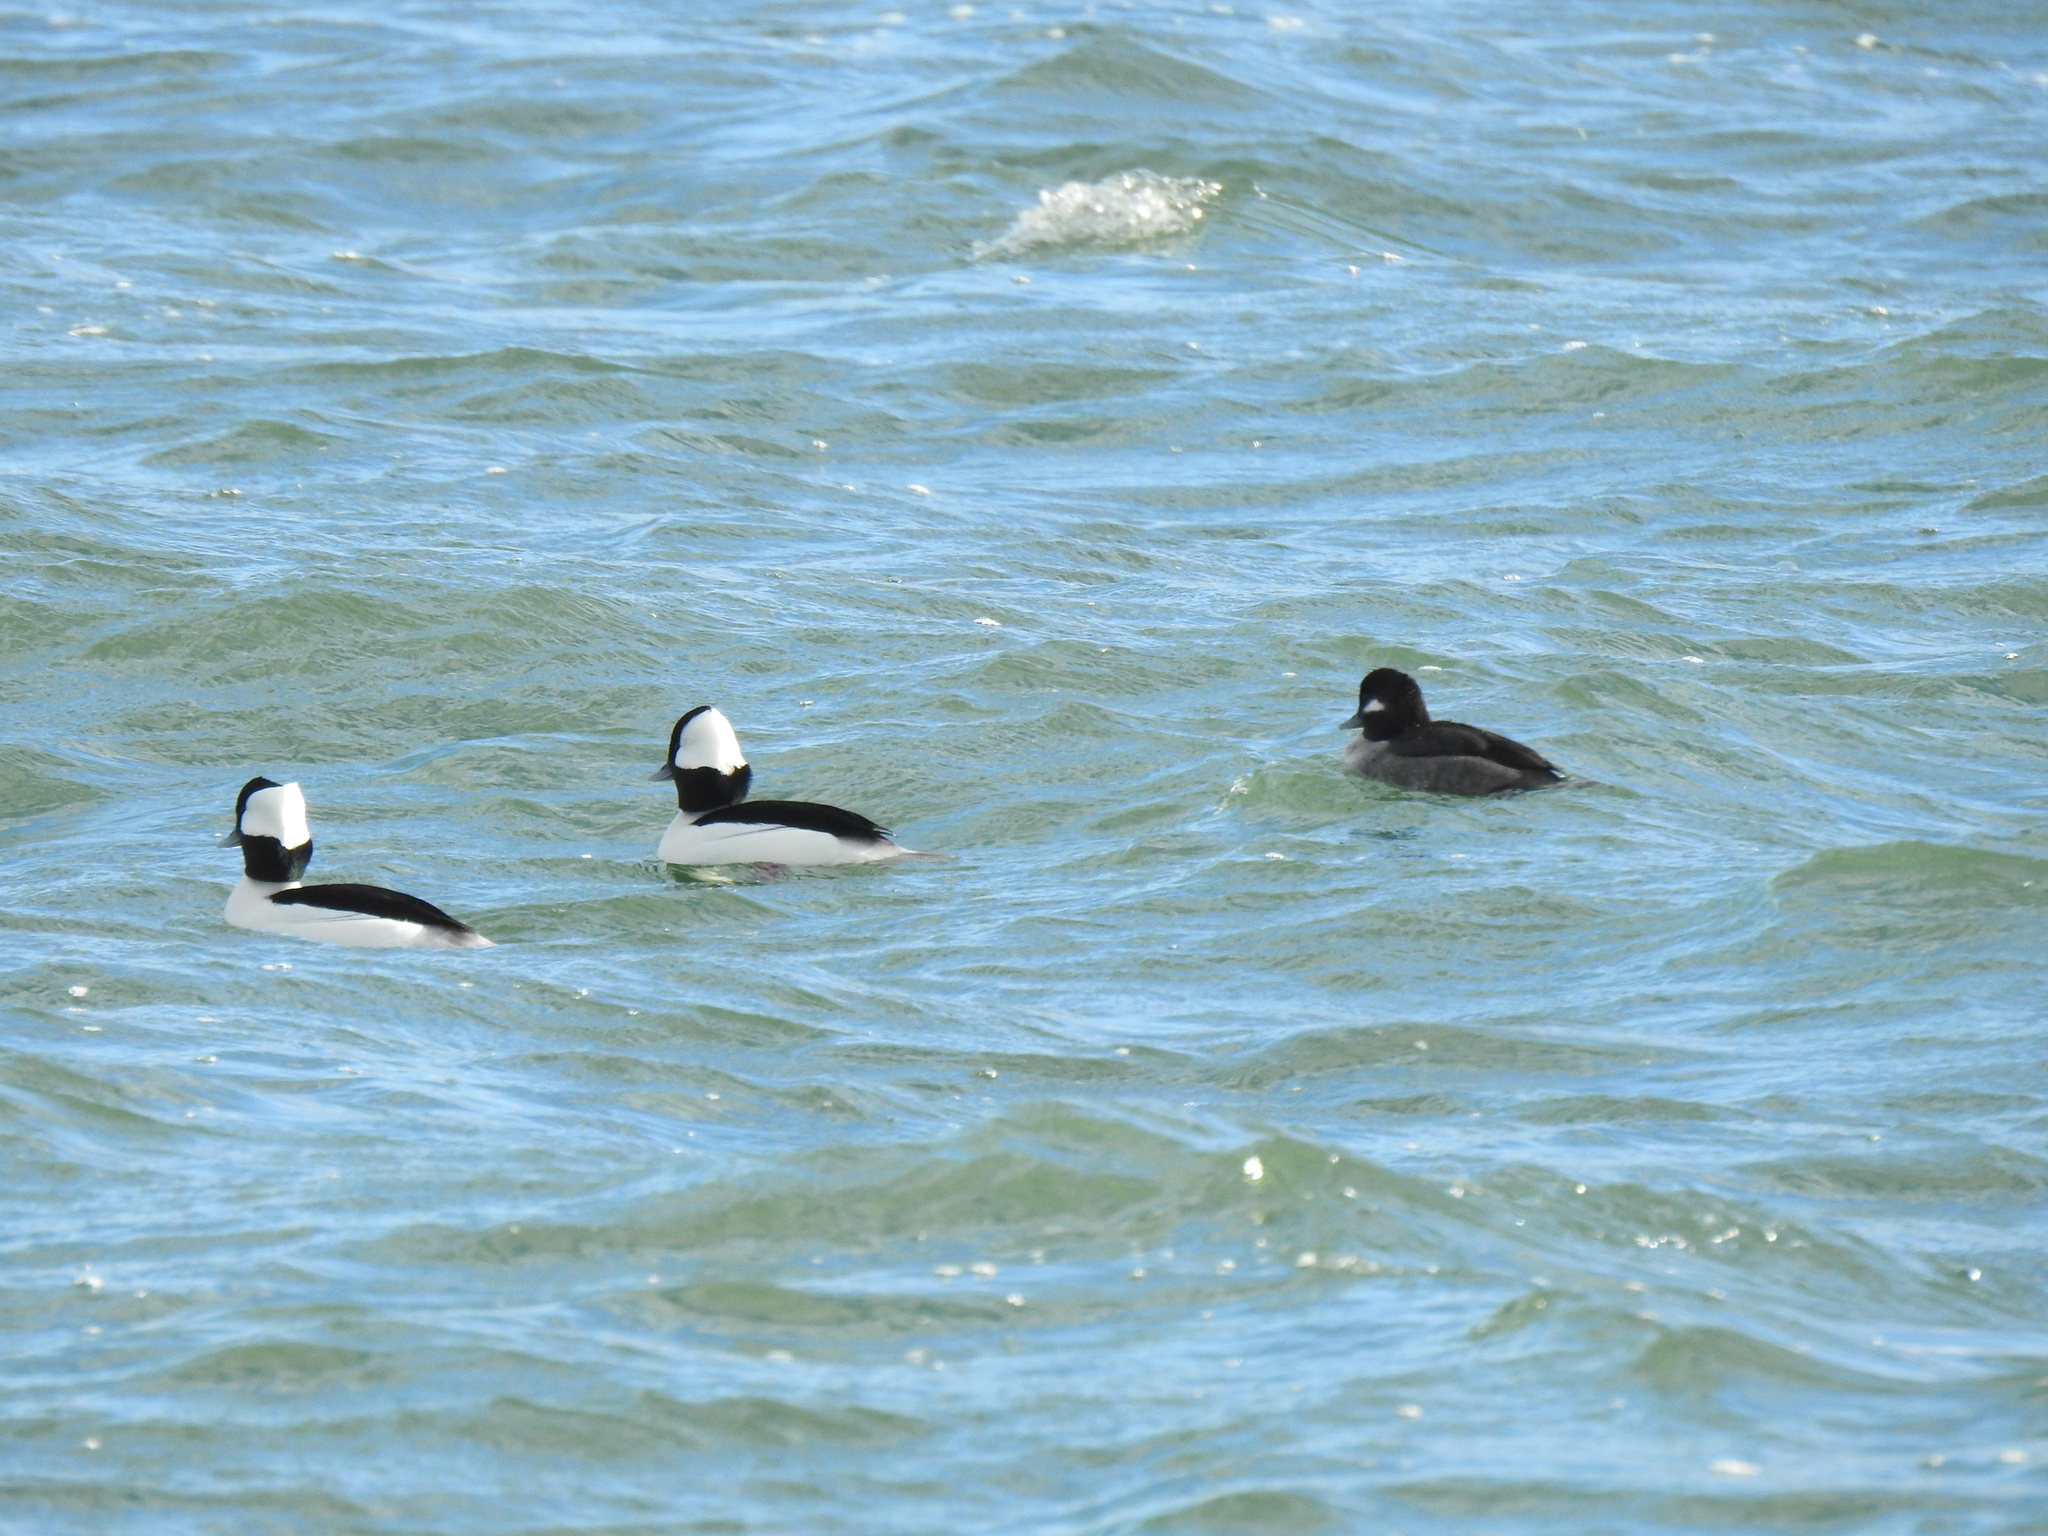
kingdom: Animalia
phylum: Chordata
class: Aves
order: Anseriformes
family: Anatidae
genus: Bucephala
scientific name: Bucephala albeola
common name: Bufflehead
